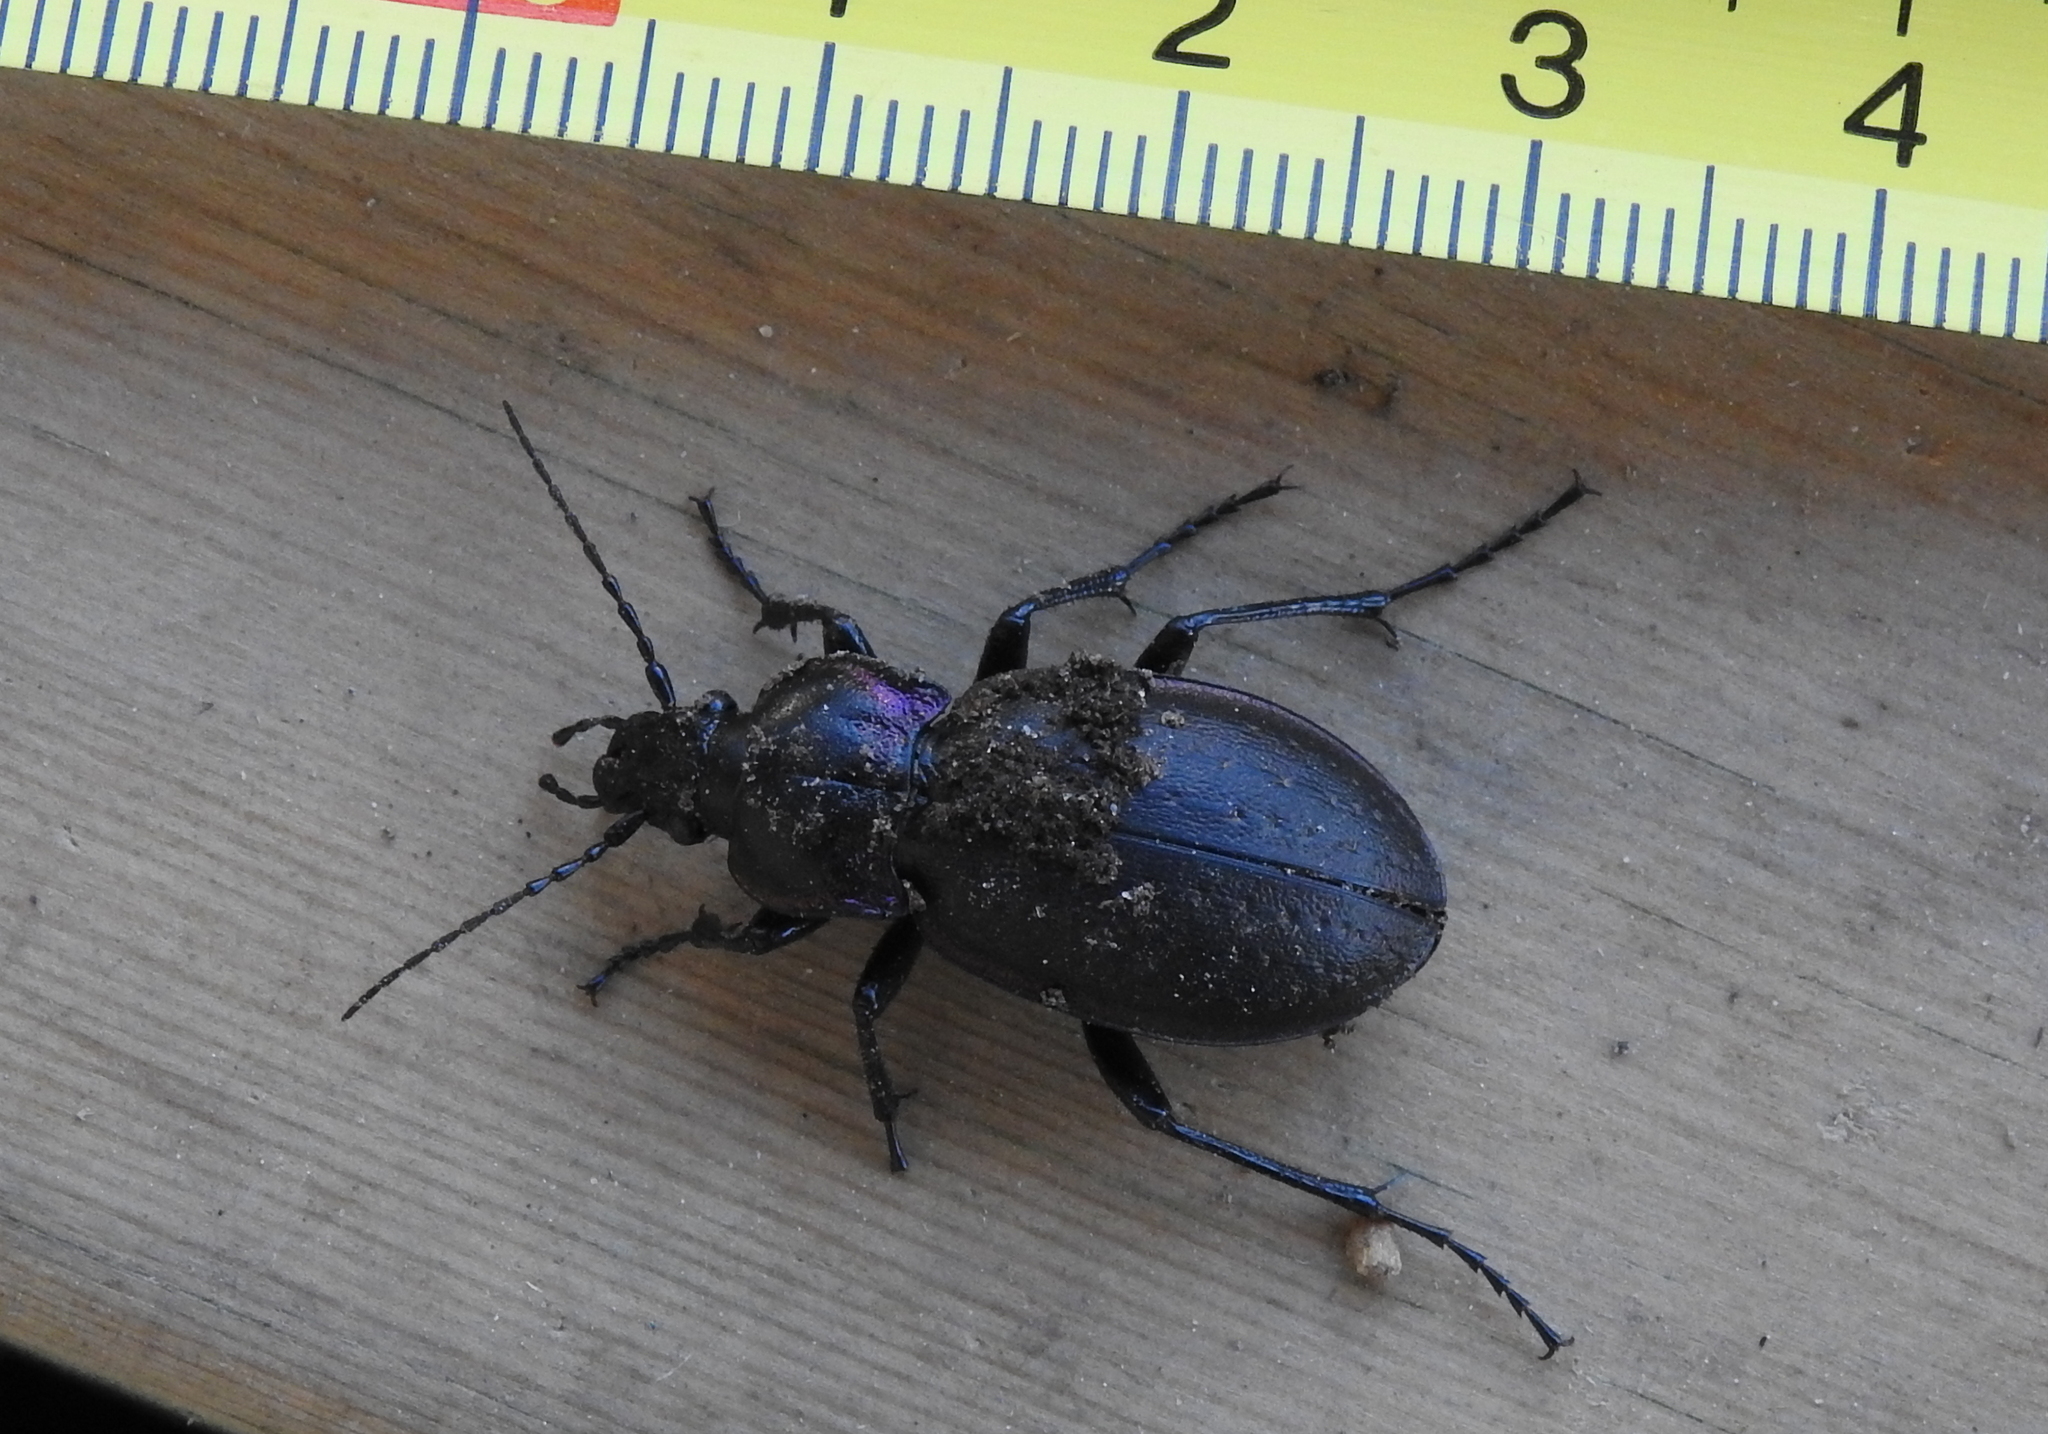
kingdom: Animalia
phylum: Arthropoda
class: Insecta
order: Coleoptera
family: Carabidae
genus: Carabus
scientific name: Carabus nemoralis
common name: European ground beetle
